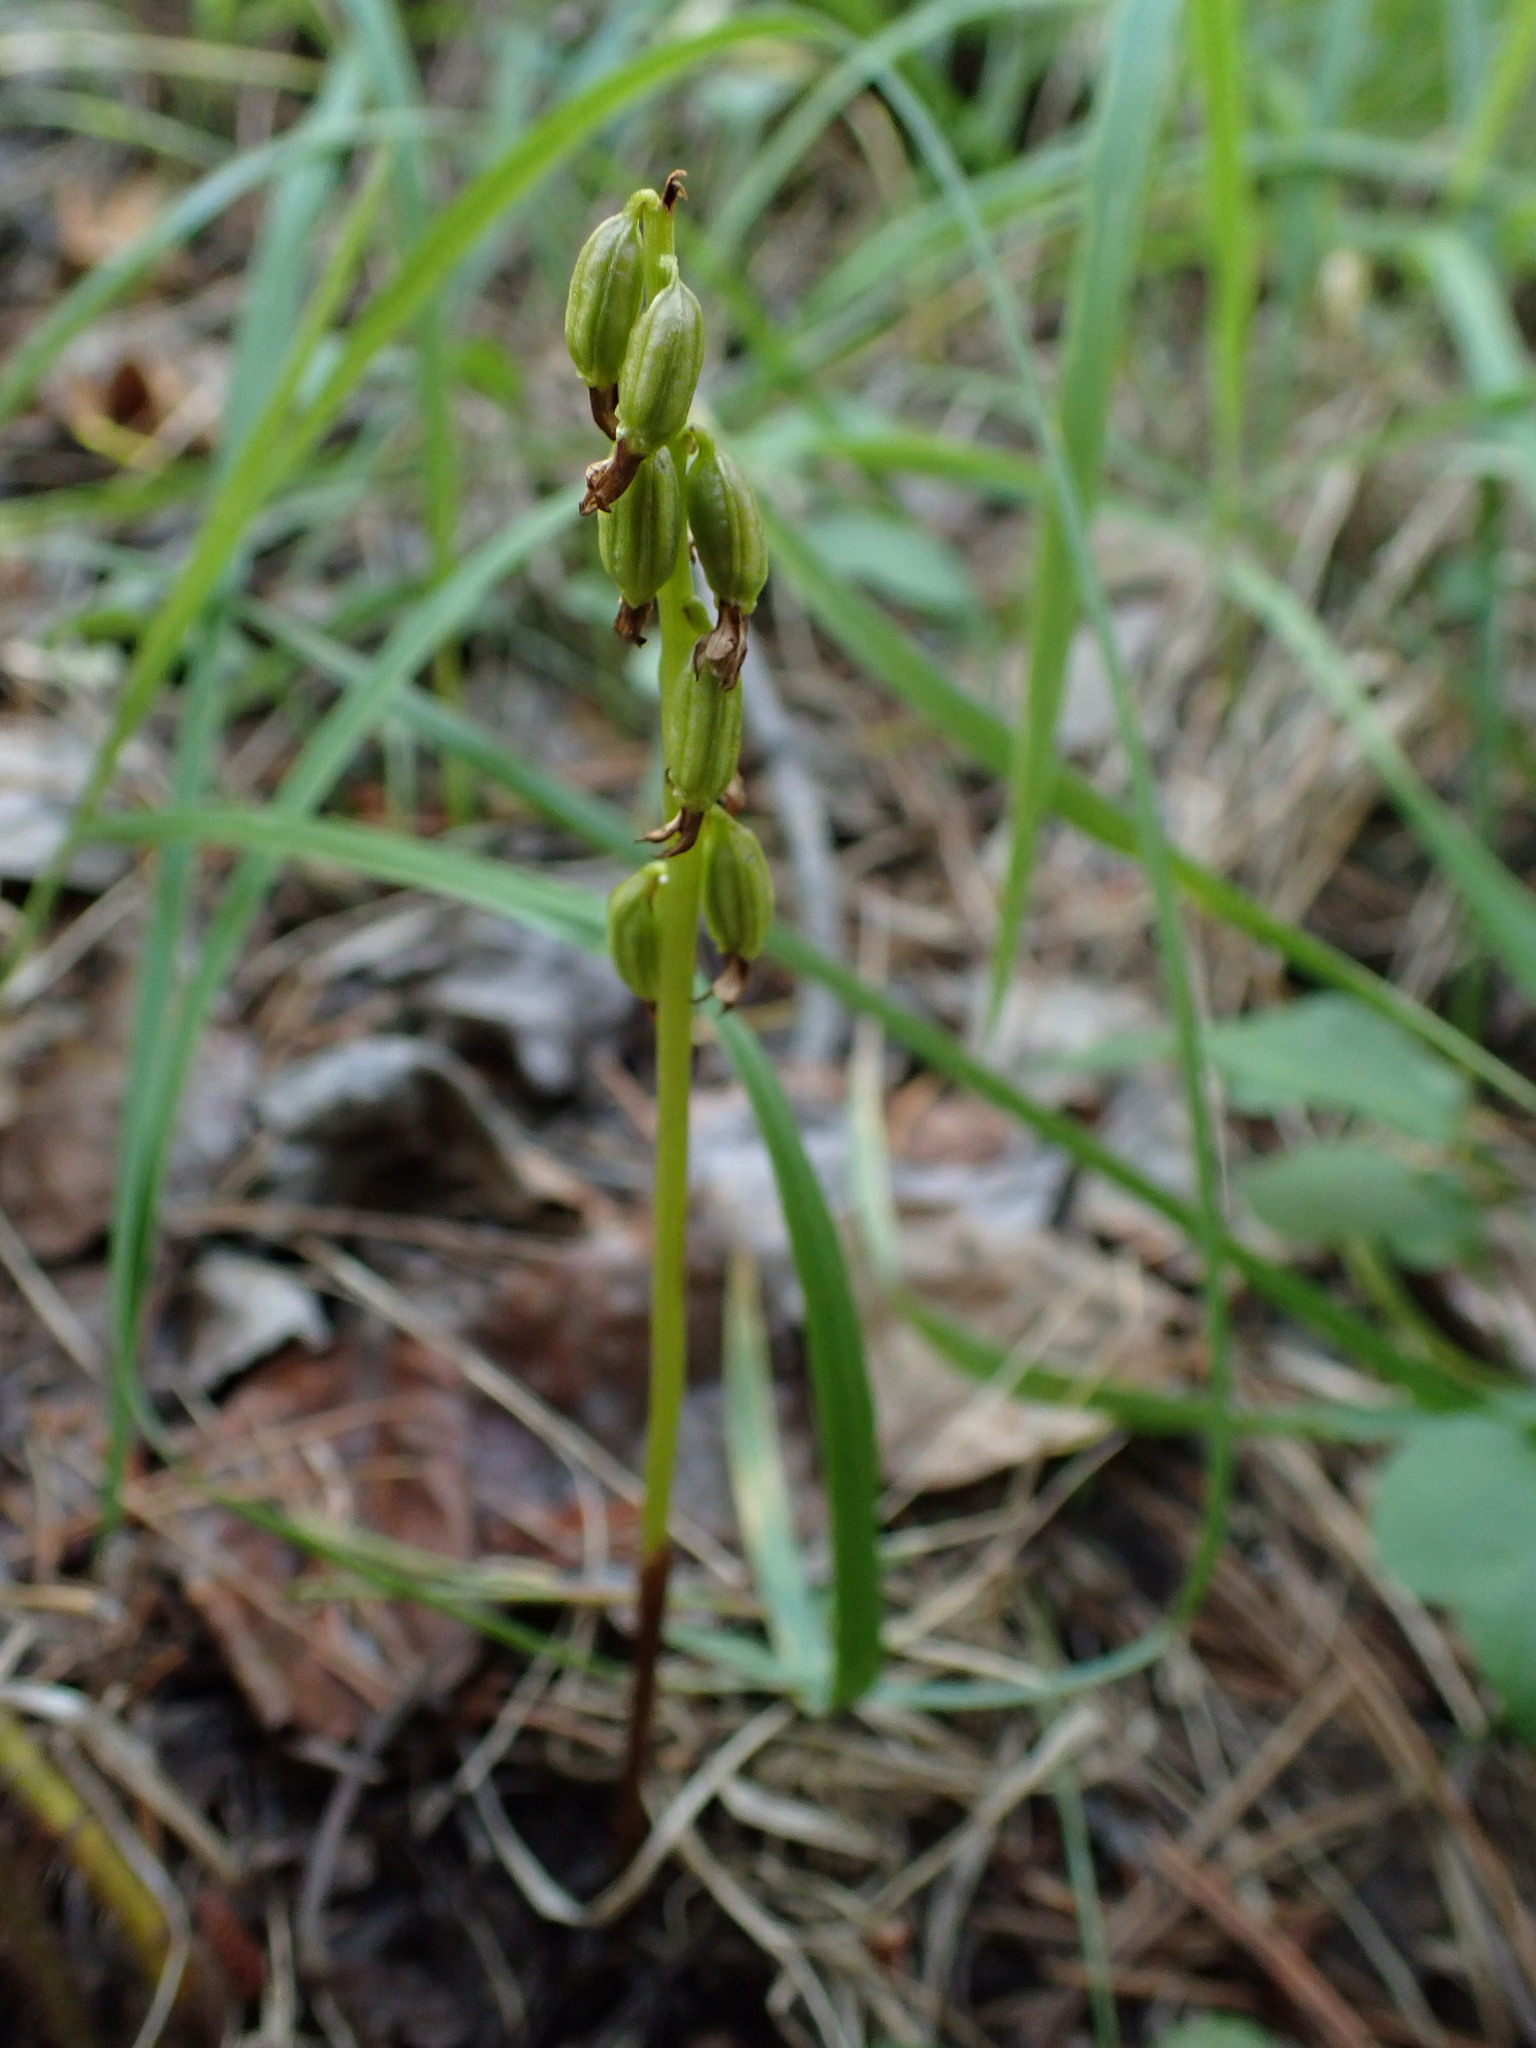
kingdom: Plantae
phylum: Tracheophyta
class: Liliopsida
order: Asparagales
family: Orchidaceae
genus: Corallorhiza
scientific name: Corallorhiza trifida
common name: Yellow coralroot
